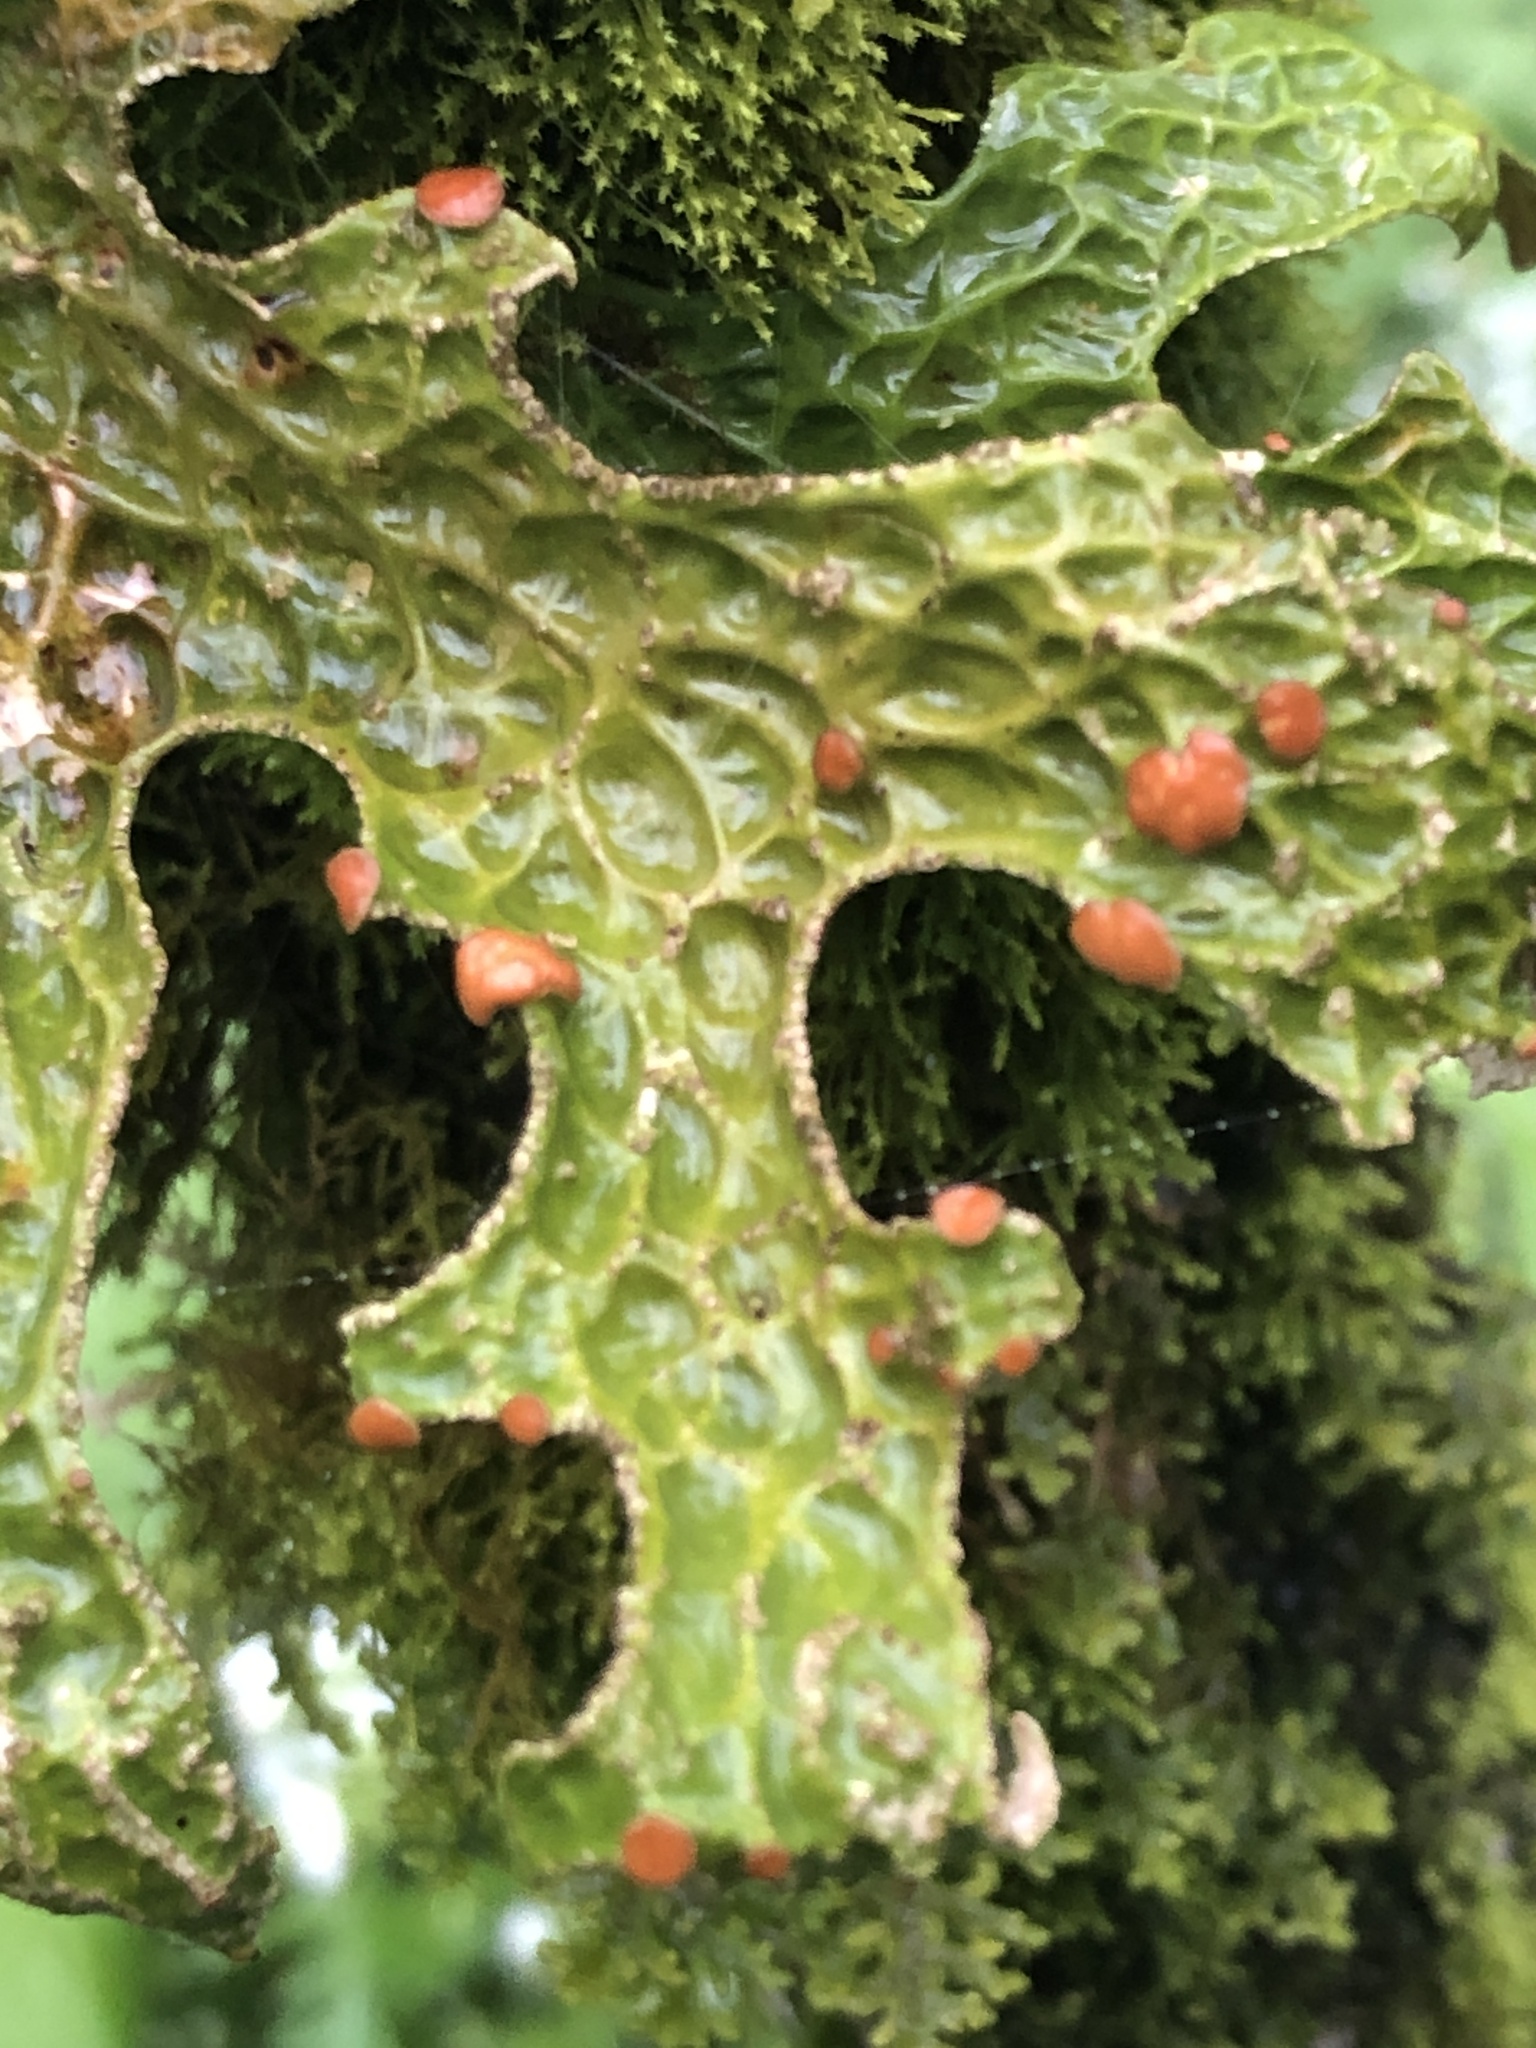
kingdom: Fungi
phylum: Ascomycota
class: Lecanoromycetes
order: Peltigerales
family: Lobariaceae
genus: Lobaria
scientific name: Lobaria pulmonaria
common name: Lungwort
